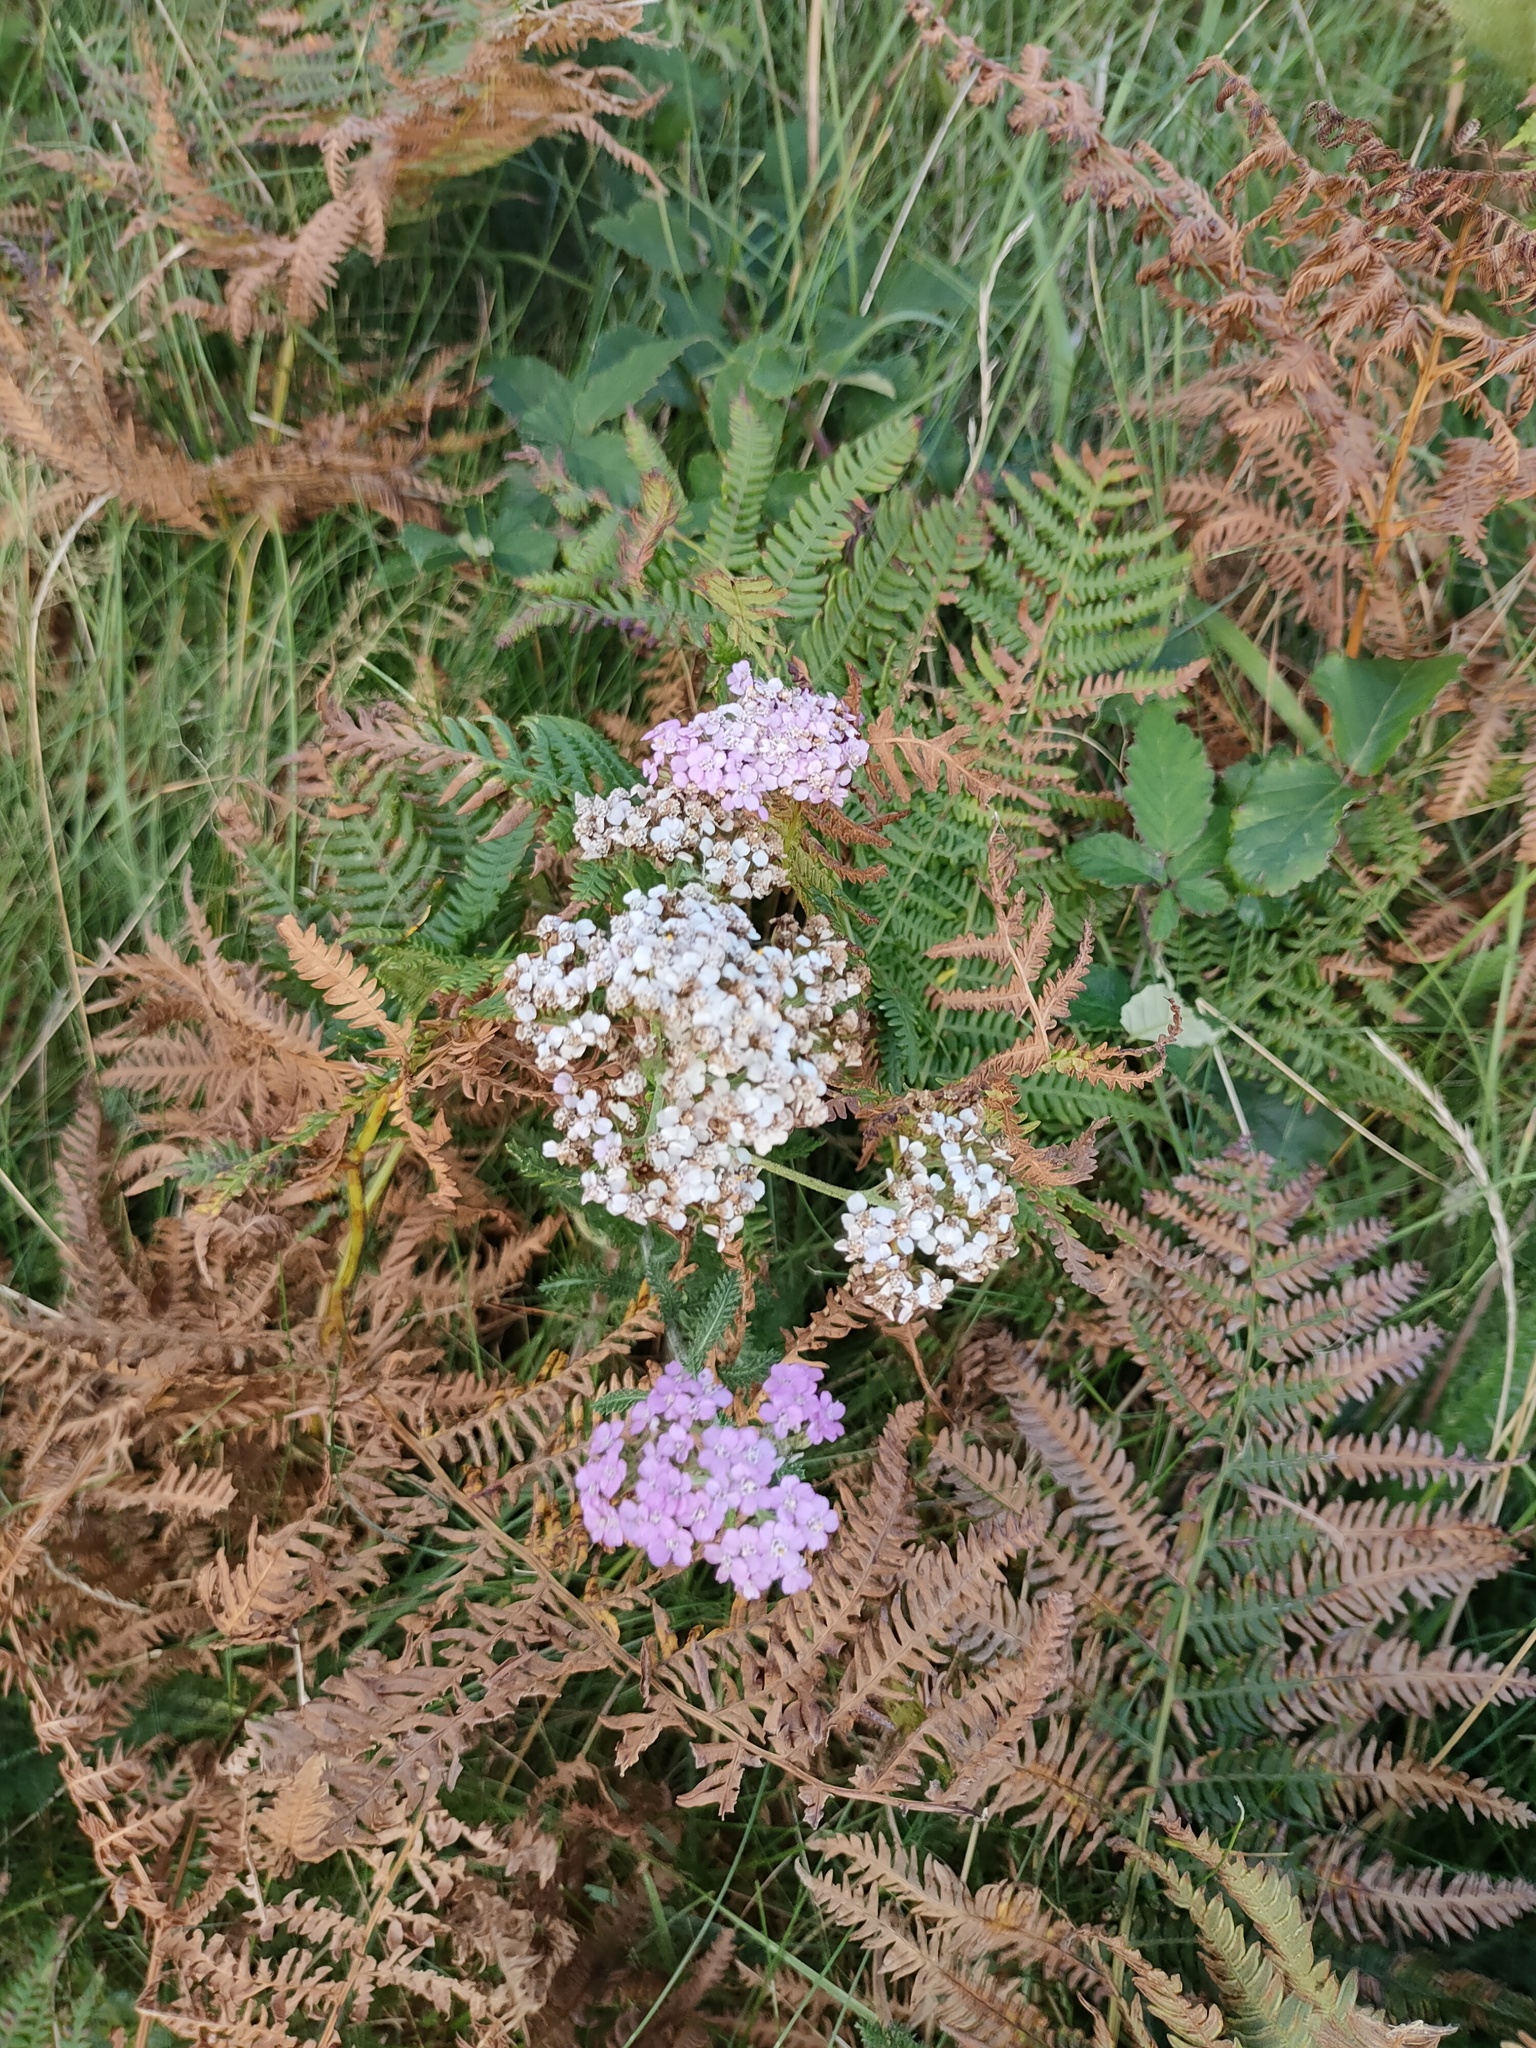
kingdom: Plantae
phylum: Tracheophyta
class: Magnoliopsida
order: Asterales
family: Asteraceae
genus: Achillea
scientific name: Achillea millefolium
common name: Yarrow
